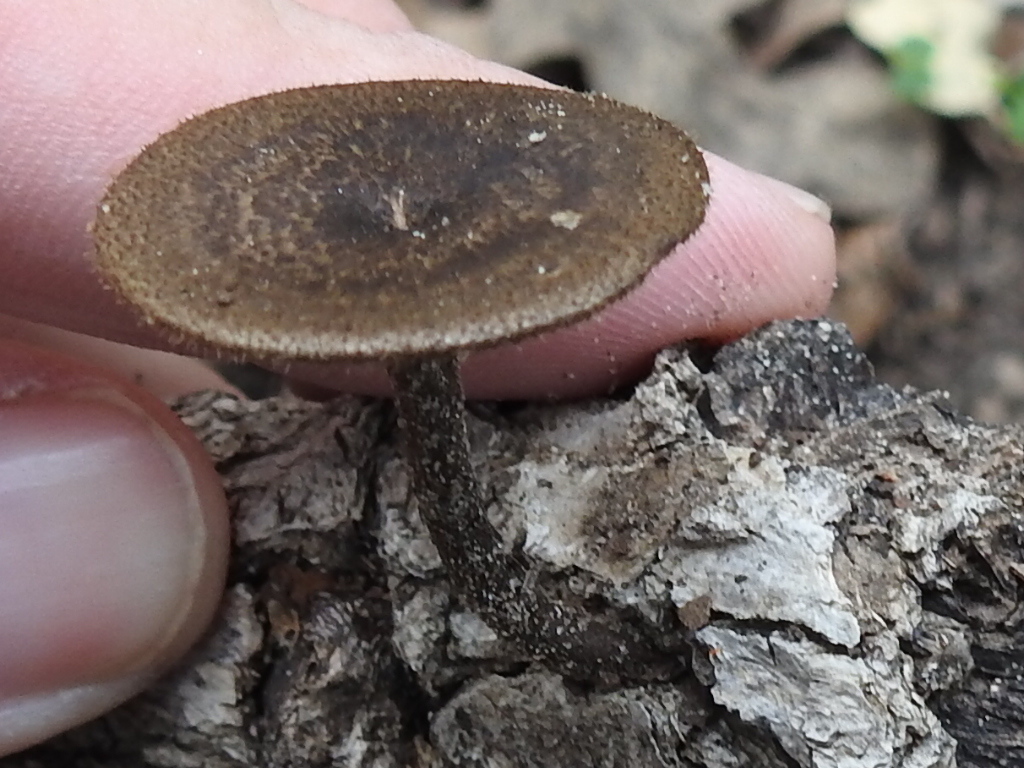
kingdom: Fungi
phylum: Basidiomycota
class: Agaricomycetes
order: Polyporales
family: Polyporaceae
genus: Lentinus
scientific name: Lentinus arcularius
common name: Spring polypore
